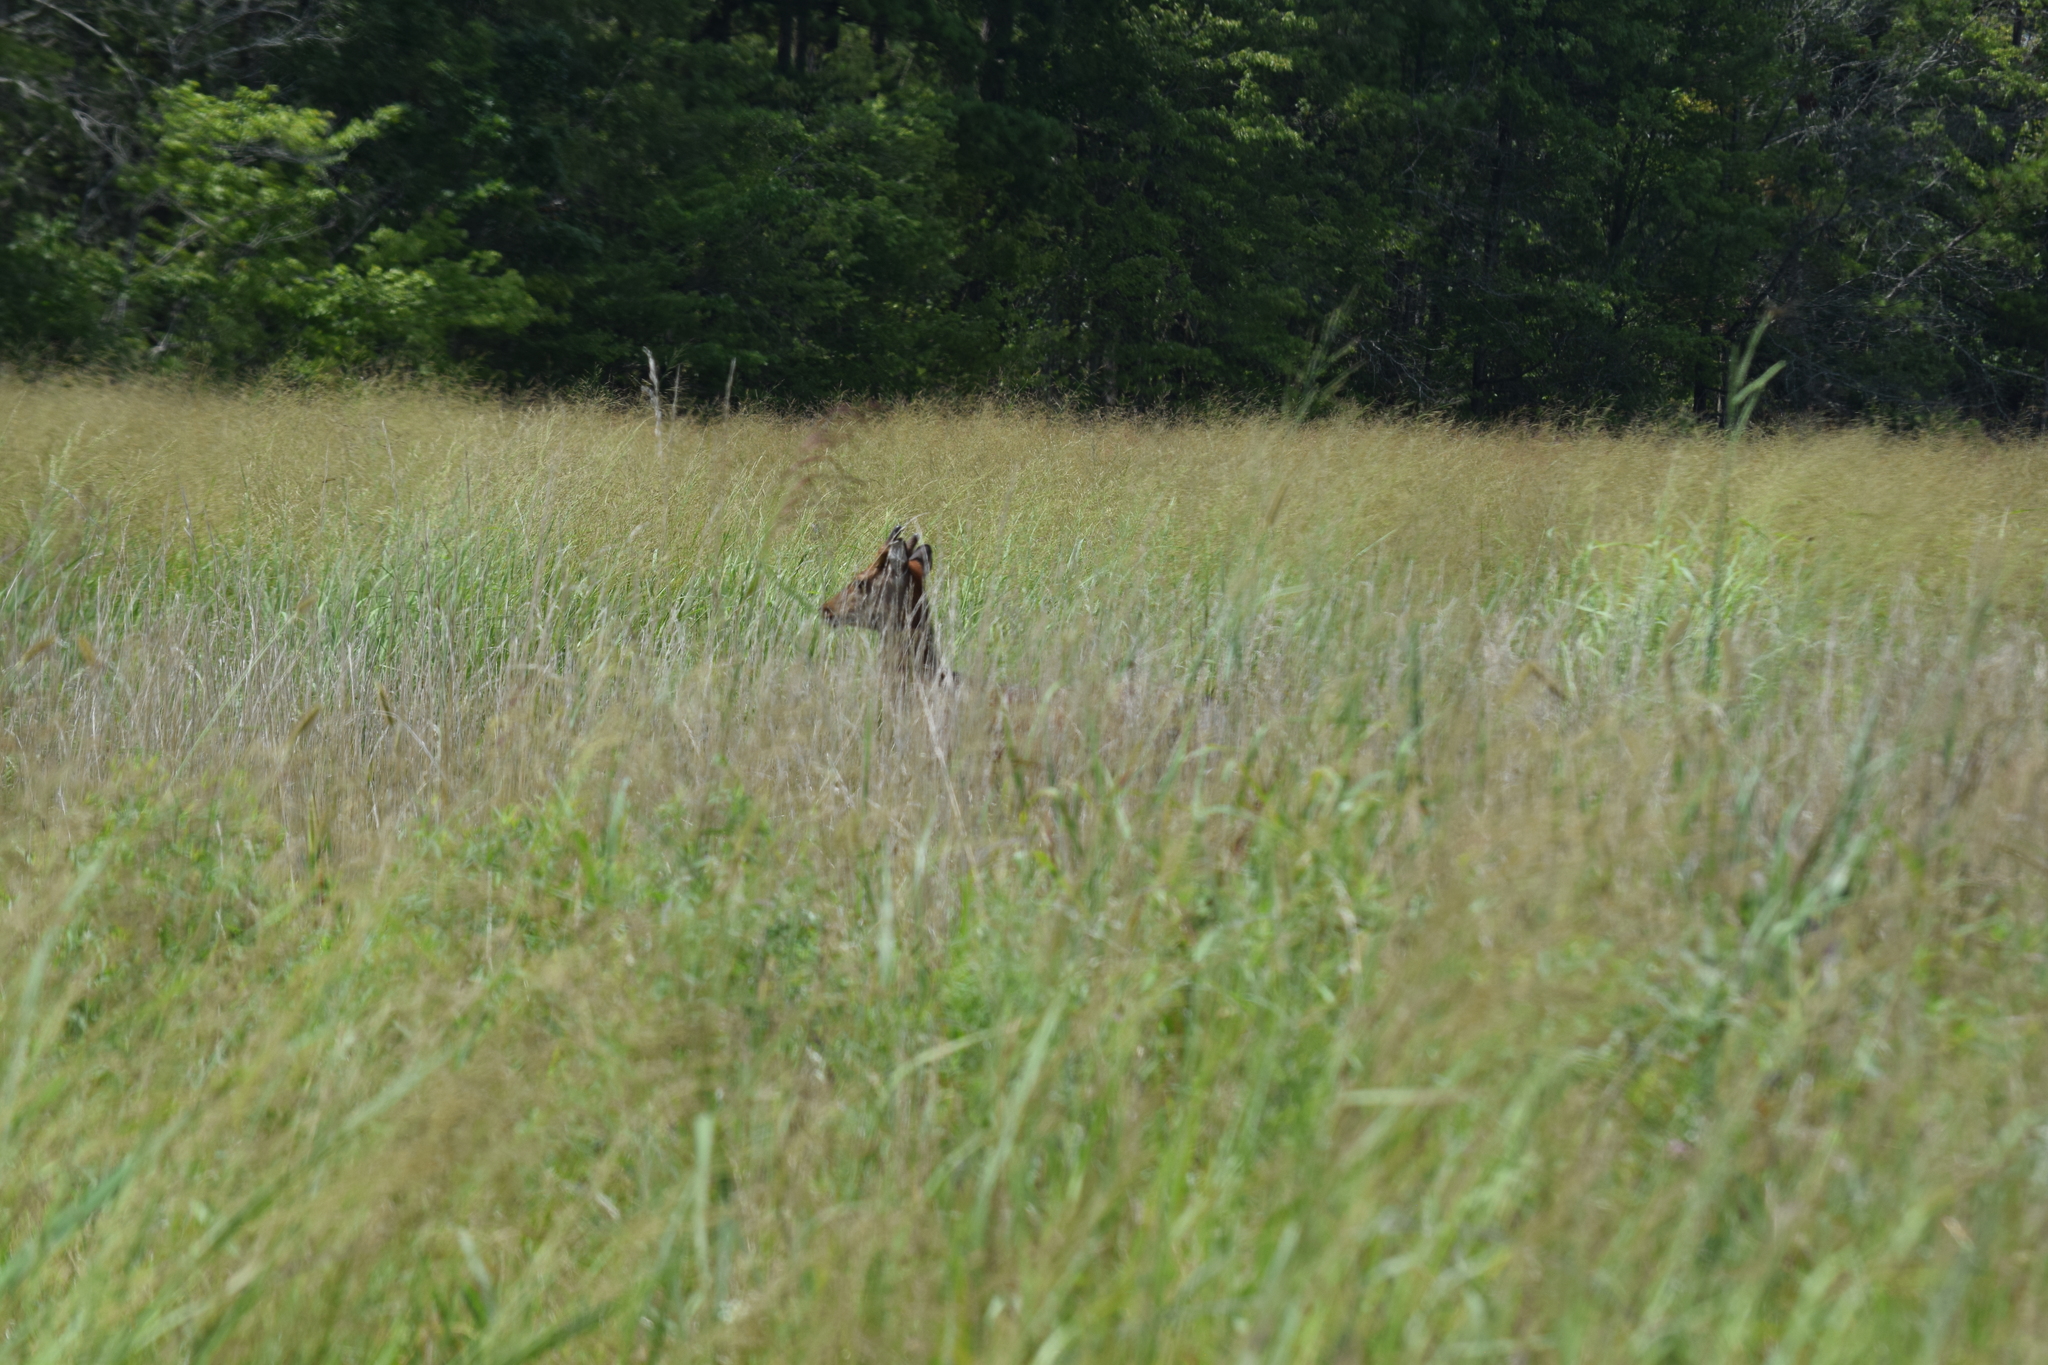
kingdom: Animalia
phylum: Chordata
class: Mammalia
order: Artiodactyla
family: Cervidae
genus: Cervus
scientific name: Cervus nippon
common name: Sika deer
